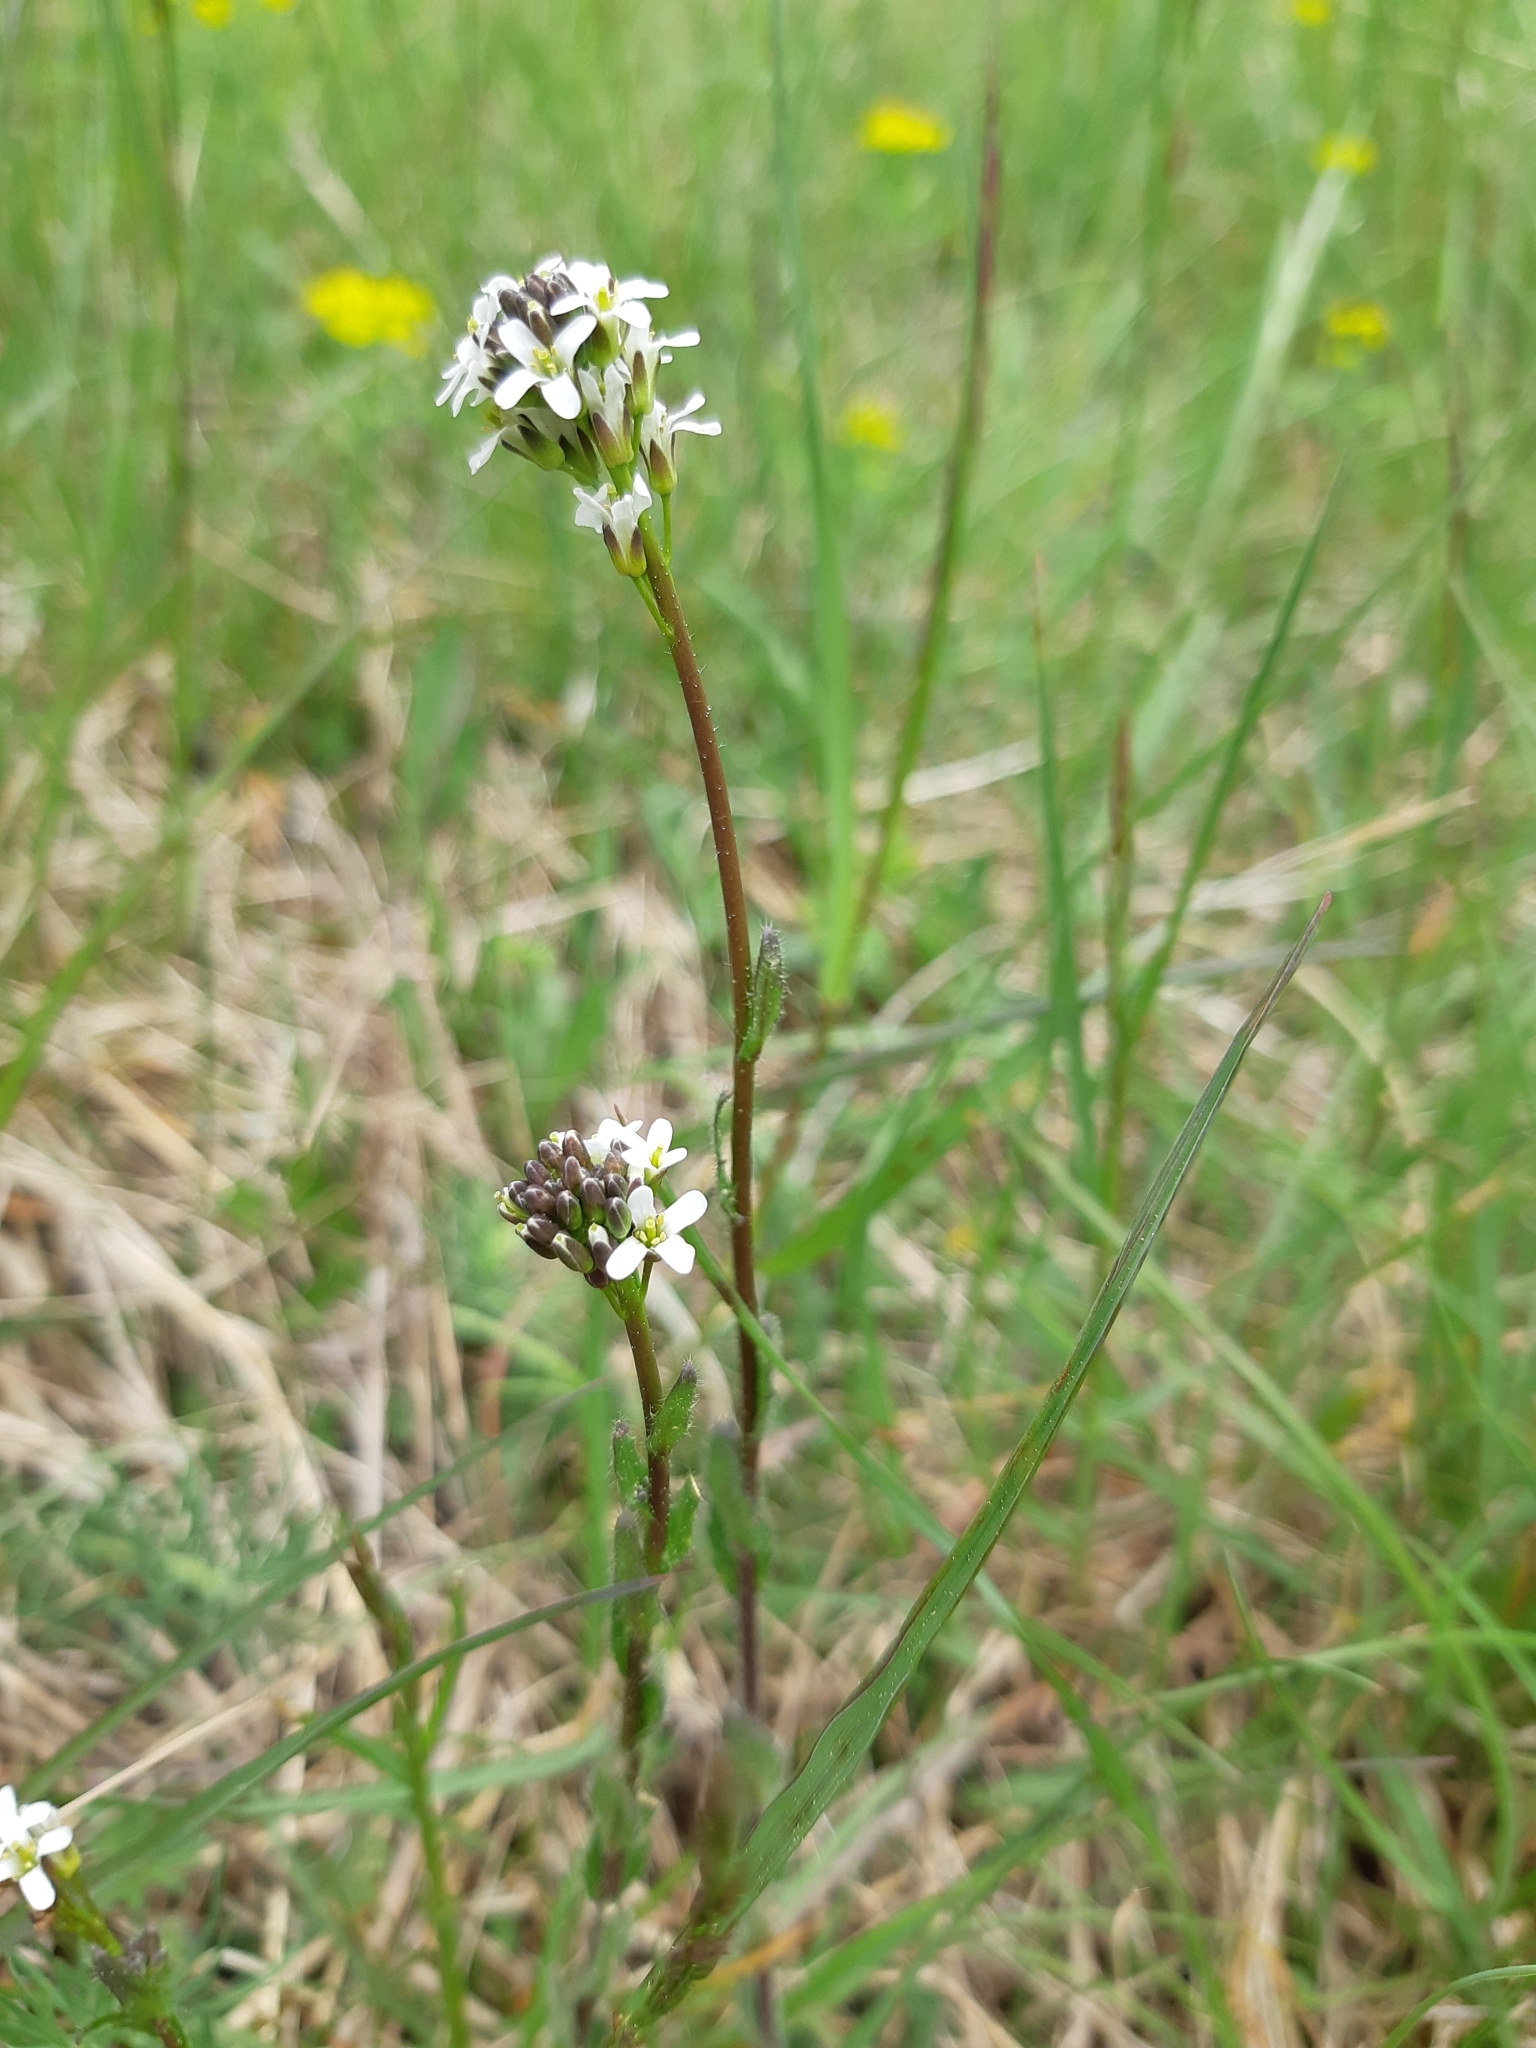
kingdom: Plantae
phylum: Tracheophyta
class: Magnoliopsida
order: Brassicales
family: Brassicaceae
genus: Arabis
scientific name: Arabis hirsuta
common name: Hairy rock-cress
